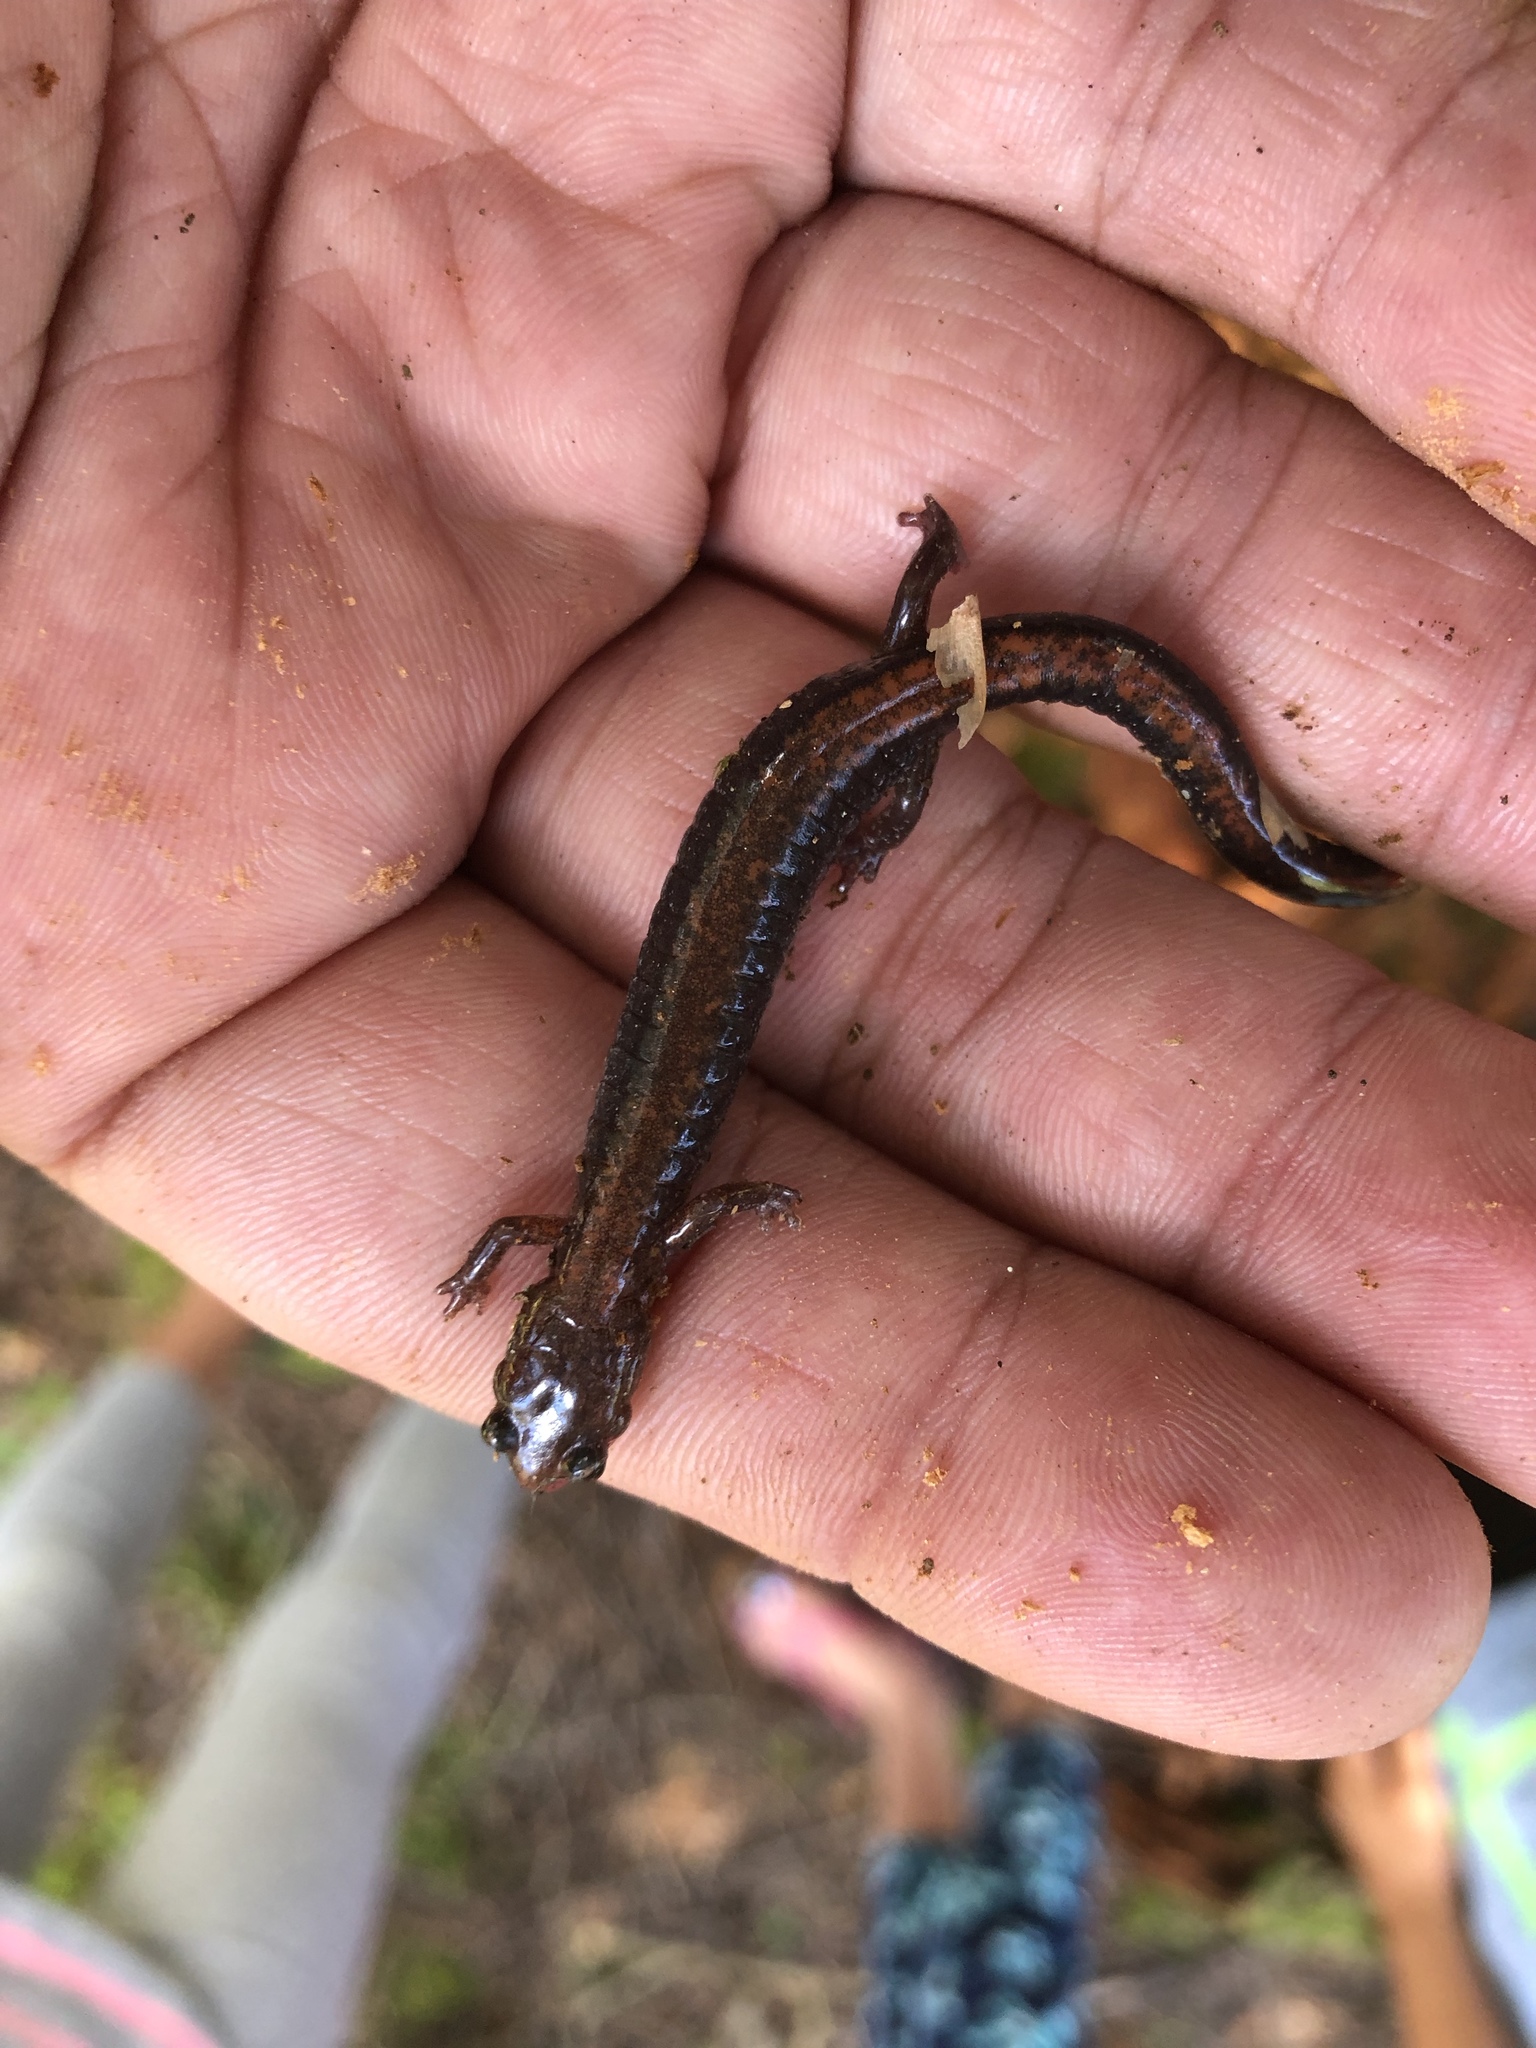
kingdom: Animalia
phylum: Chordata
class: Amphibia
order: Caudata
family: Plethodontidae
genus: Plethodon
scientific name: Plethodon cinereus
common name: Redback salamander
